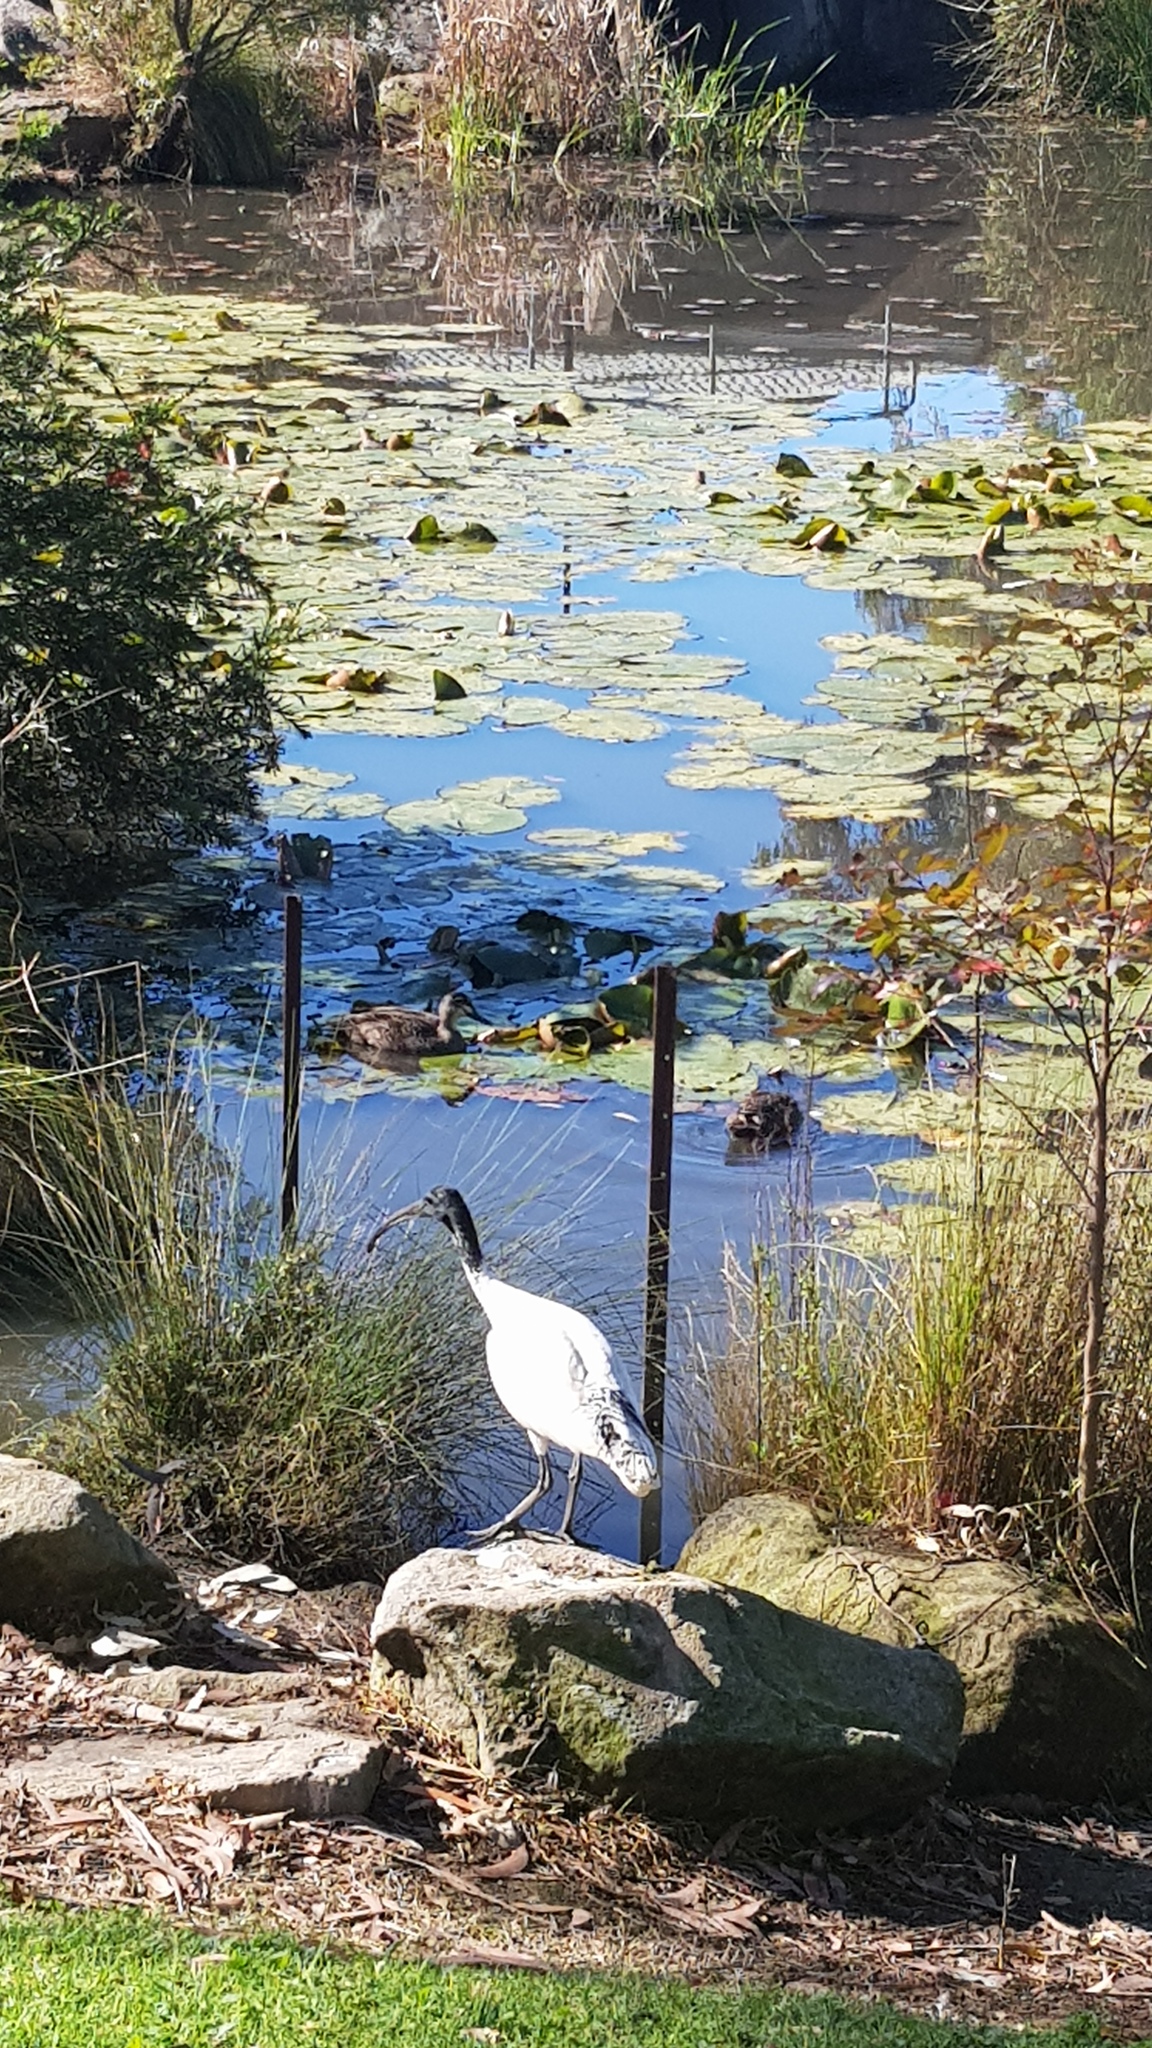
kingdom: Animalia
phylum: Chordata
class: Aves
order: Anseriformes
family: Anatidae
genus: Anas
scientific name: Anas superciliosa
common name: Pacific black duck
